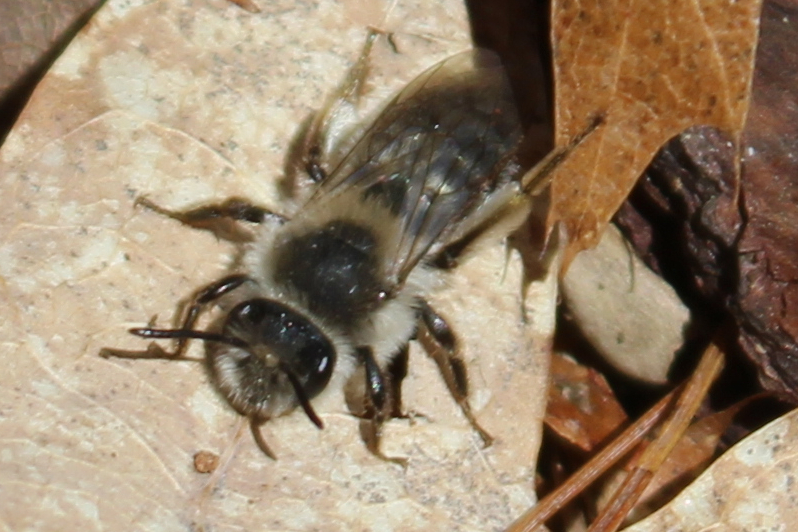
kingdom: Animalia
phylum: Arthropoda
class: Insecta
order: Hymenoptera
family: Andrenidae
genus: Andrena
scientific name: Andrena frigida
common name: Frigid mining bee
